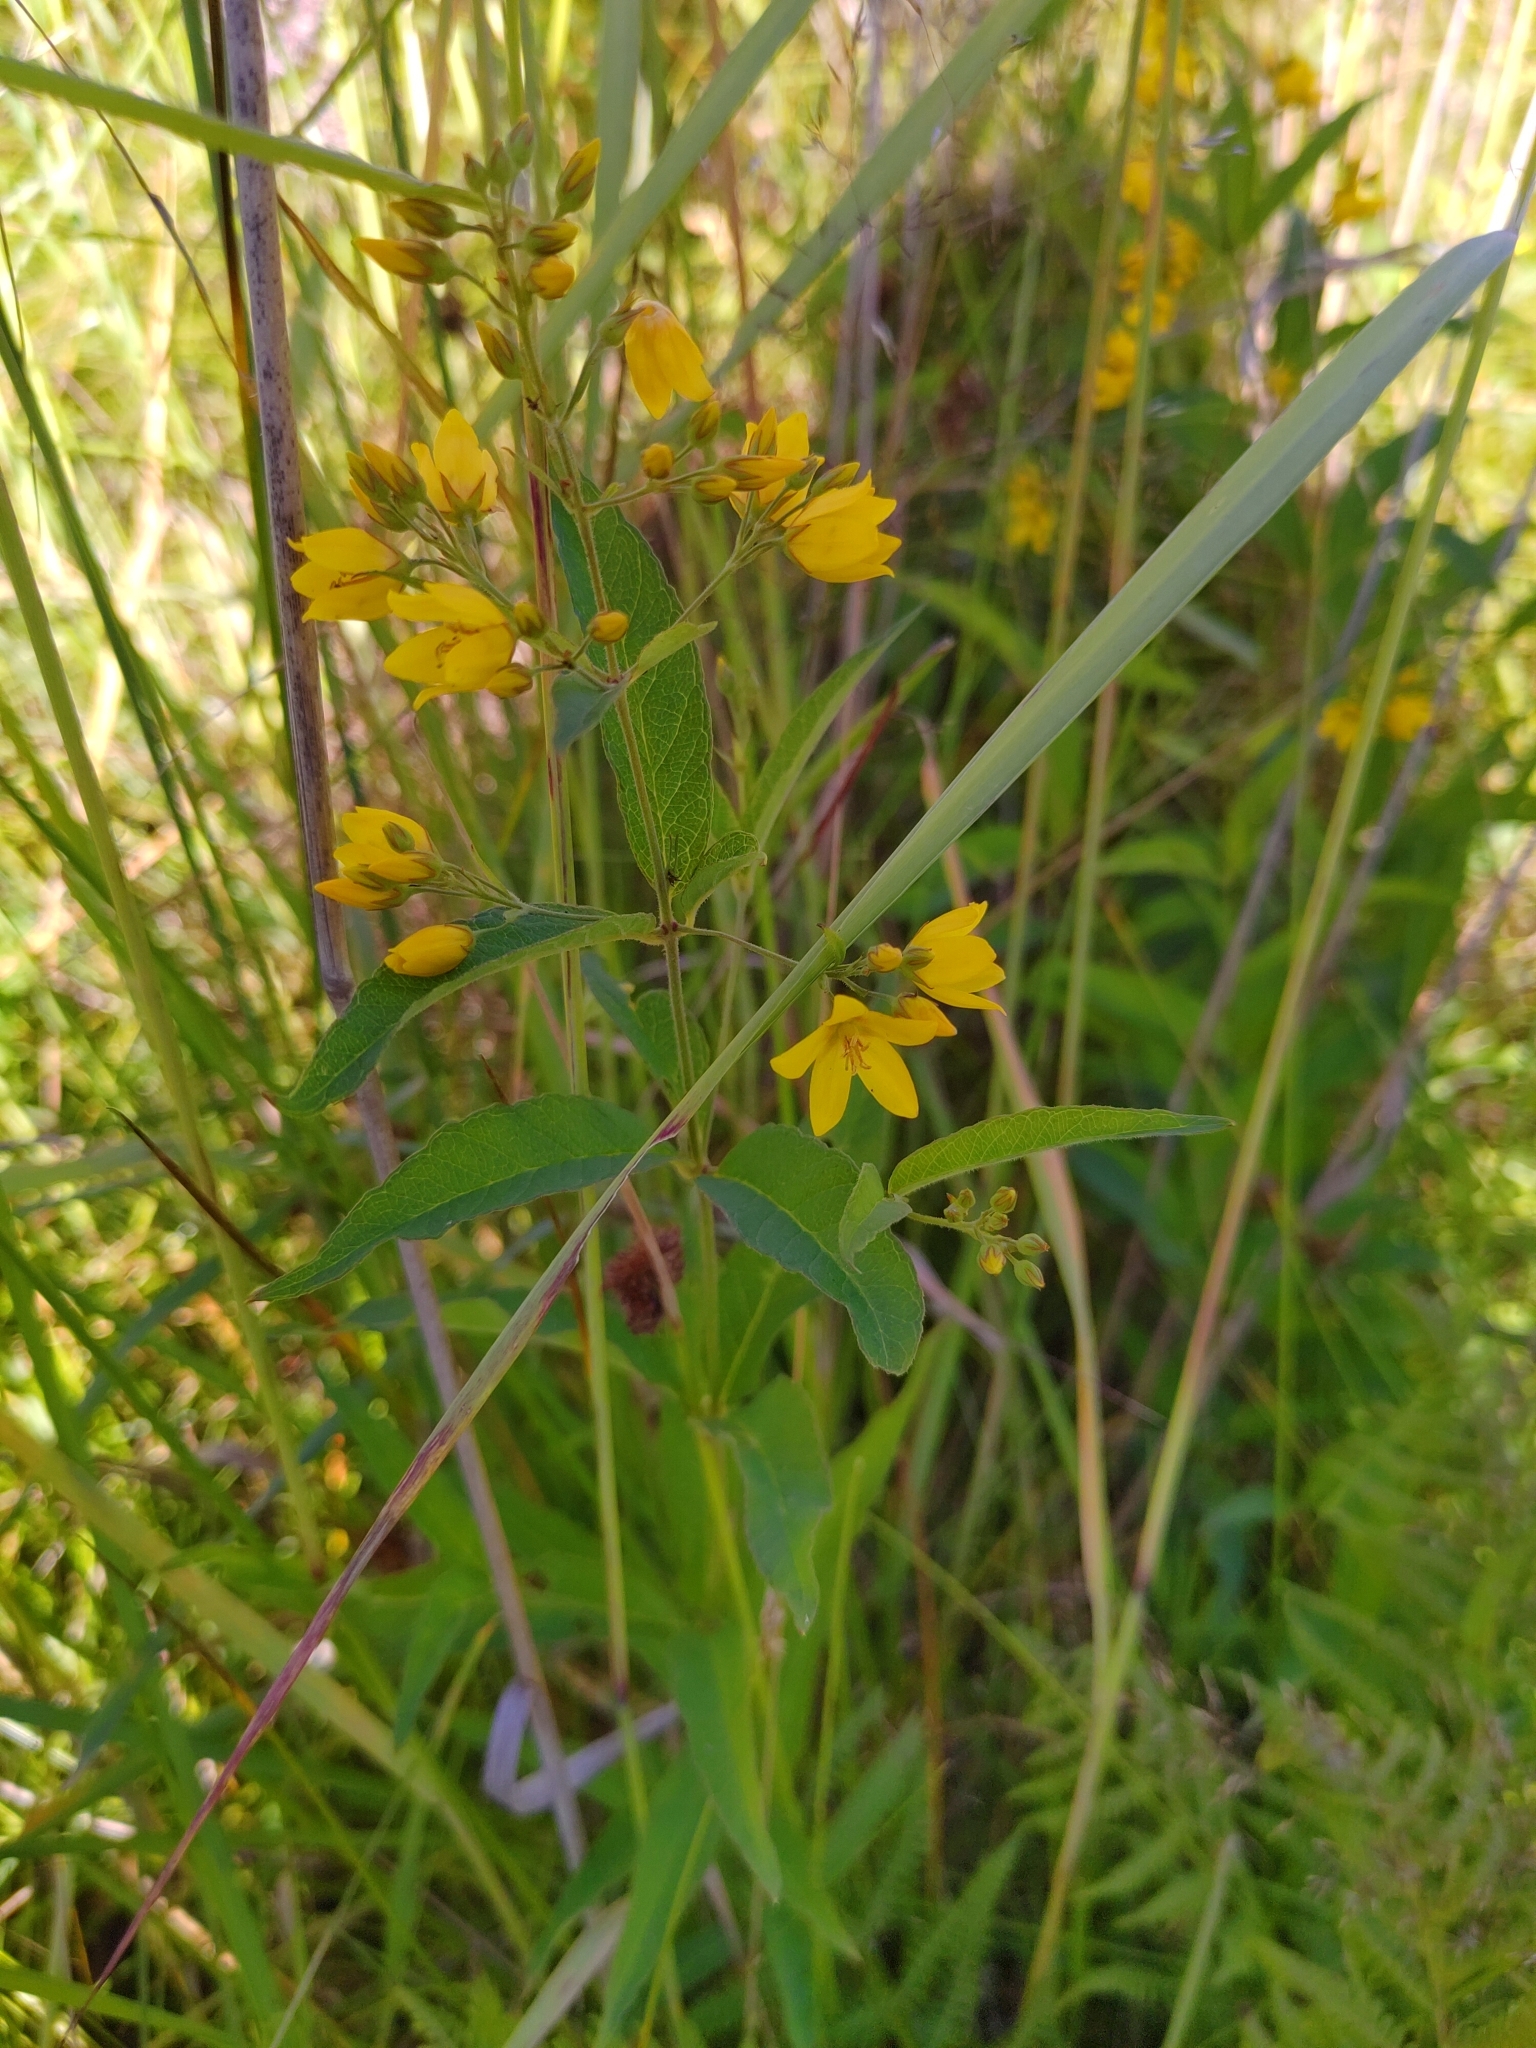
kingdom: Plantae
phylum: Tracheophyta
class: Magnoliopsida
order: Ericales
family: Primulaceae
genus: Lysimachia
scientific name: Lysimachia vulgaris
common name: Yellow loosestrife
